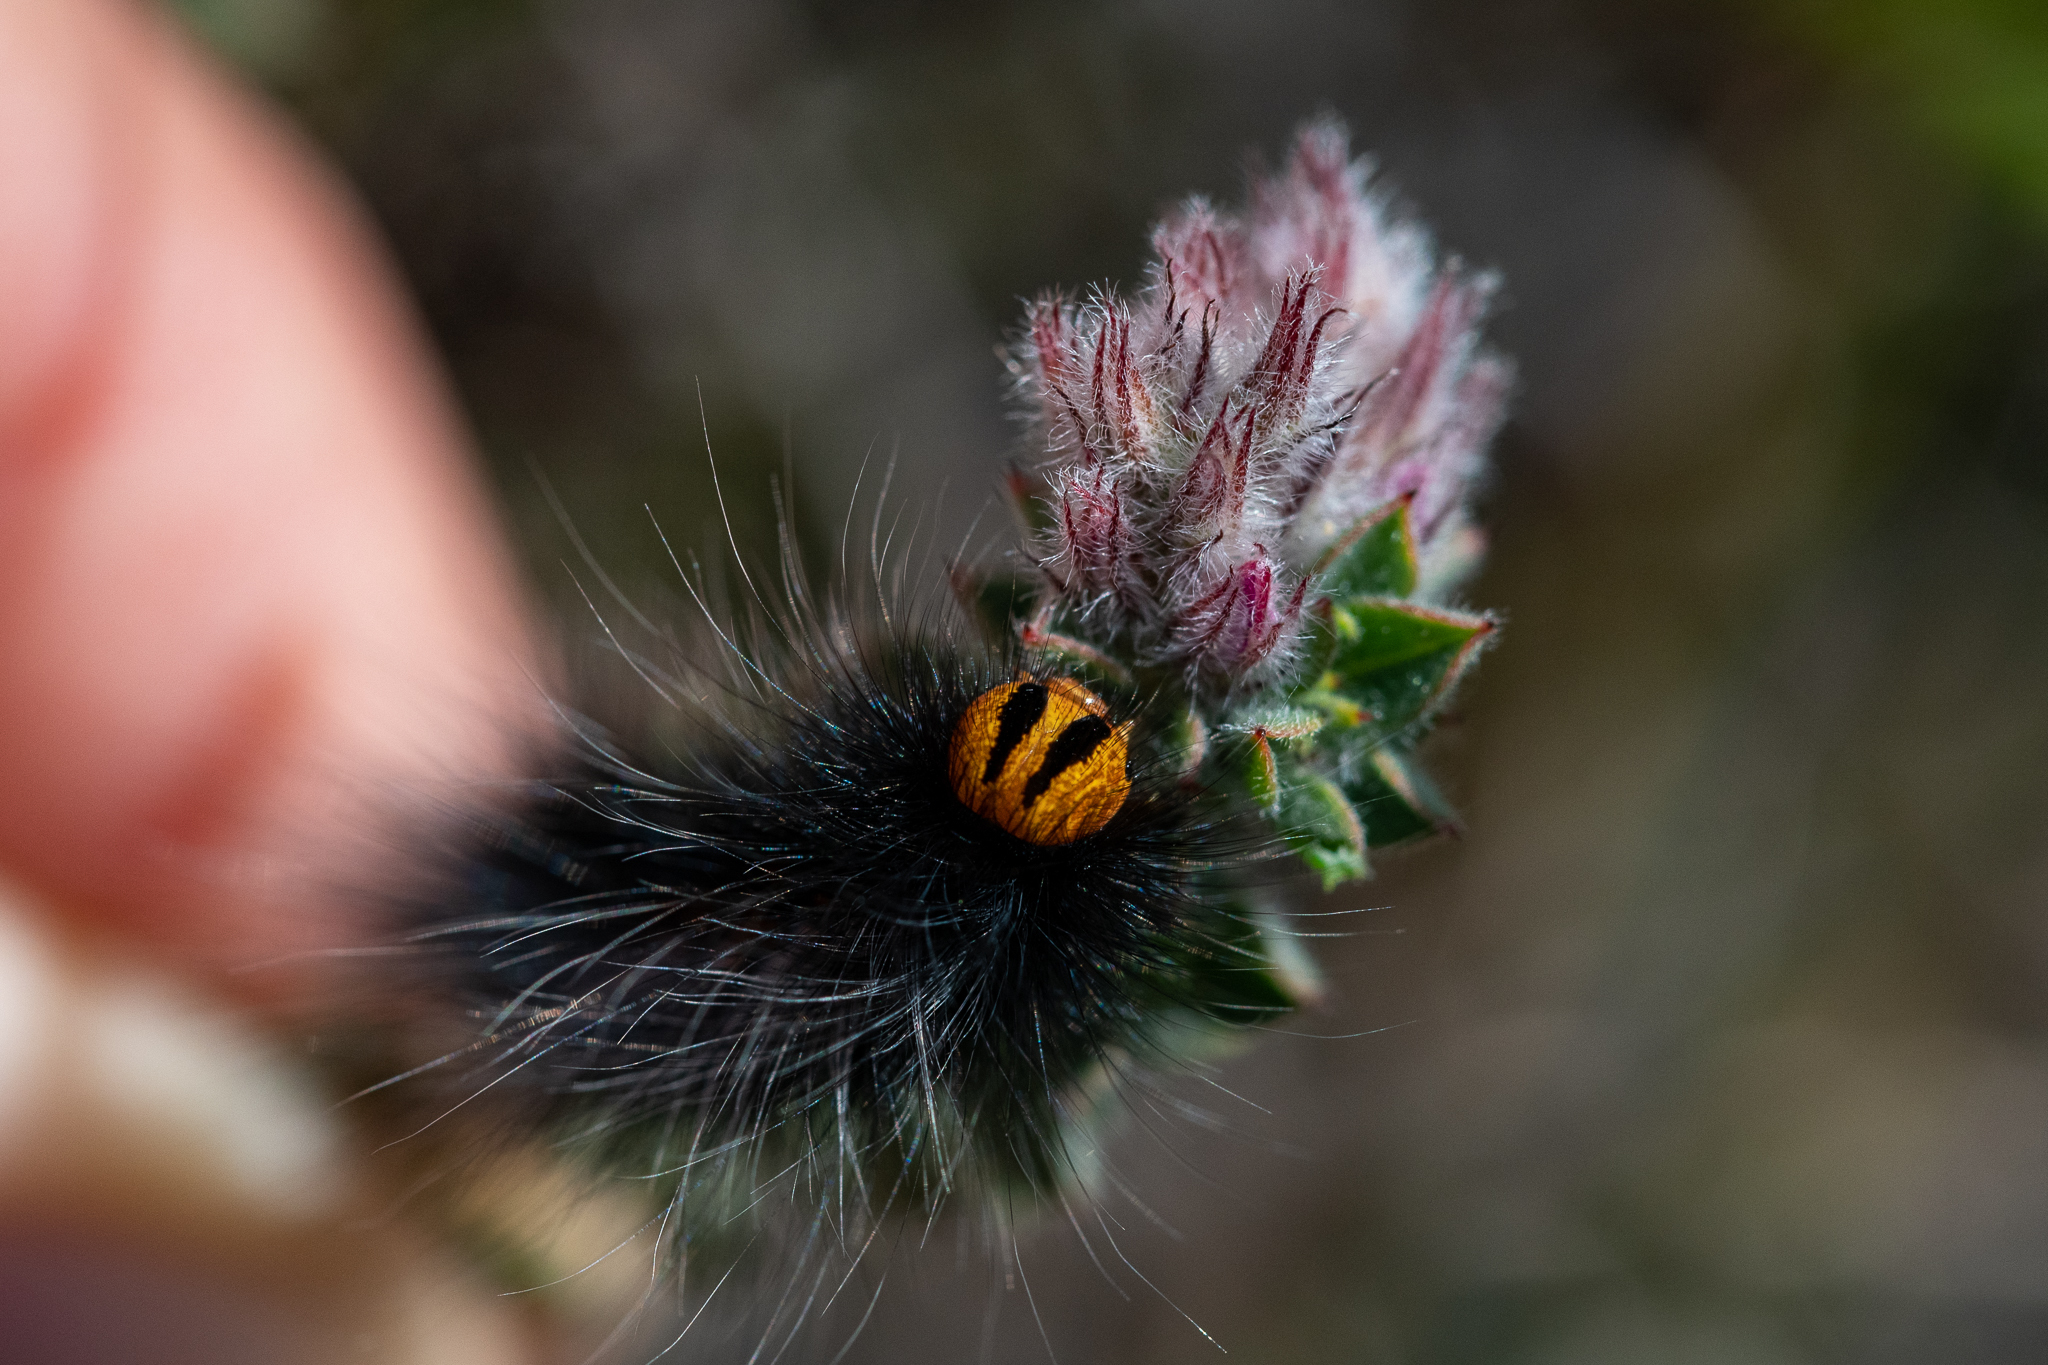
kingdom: Animalia
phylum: Arthropoda
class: Insecta
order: Lepidoptera
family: Lasiocampidae
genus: Mesocelis
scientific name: Mesocelis monticola
